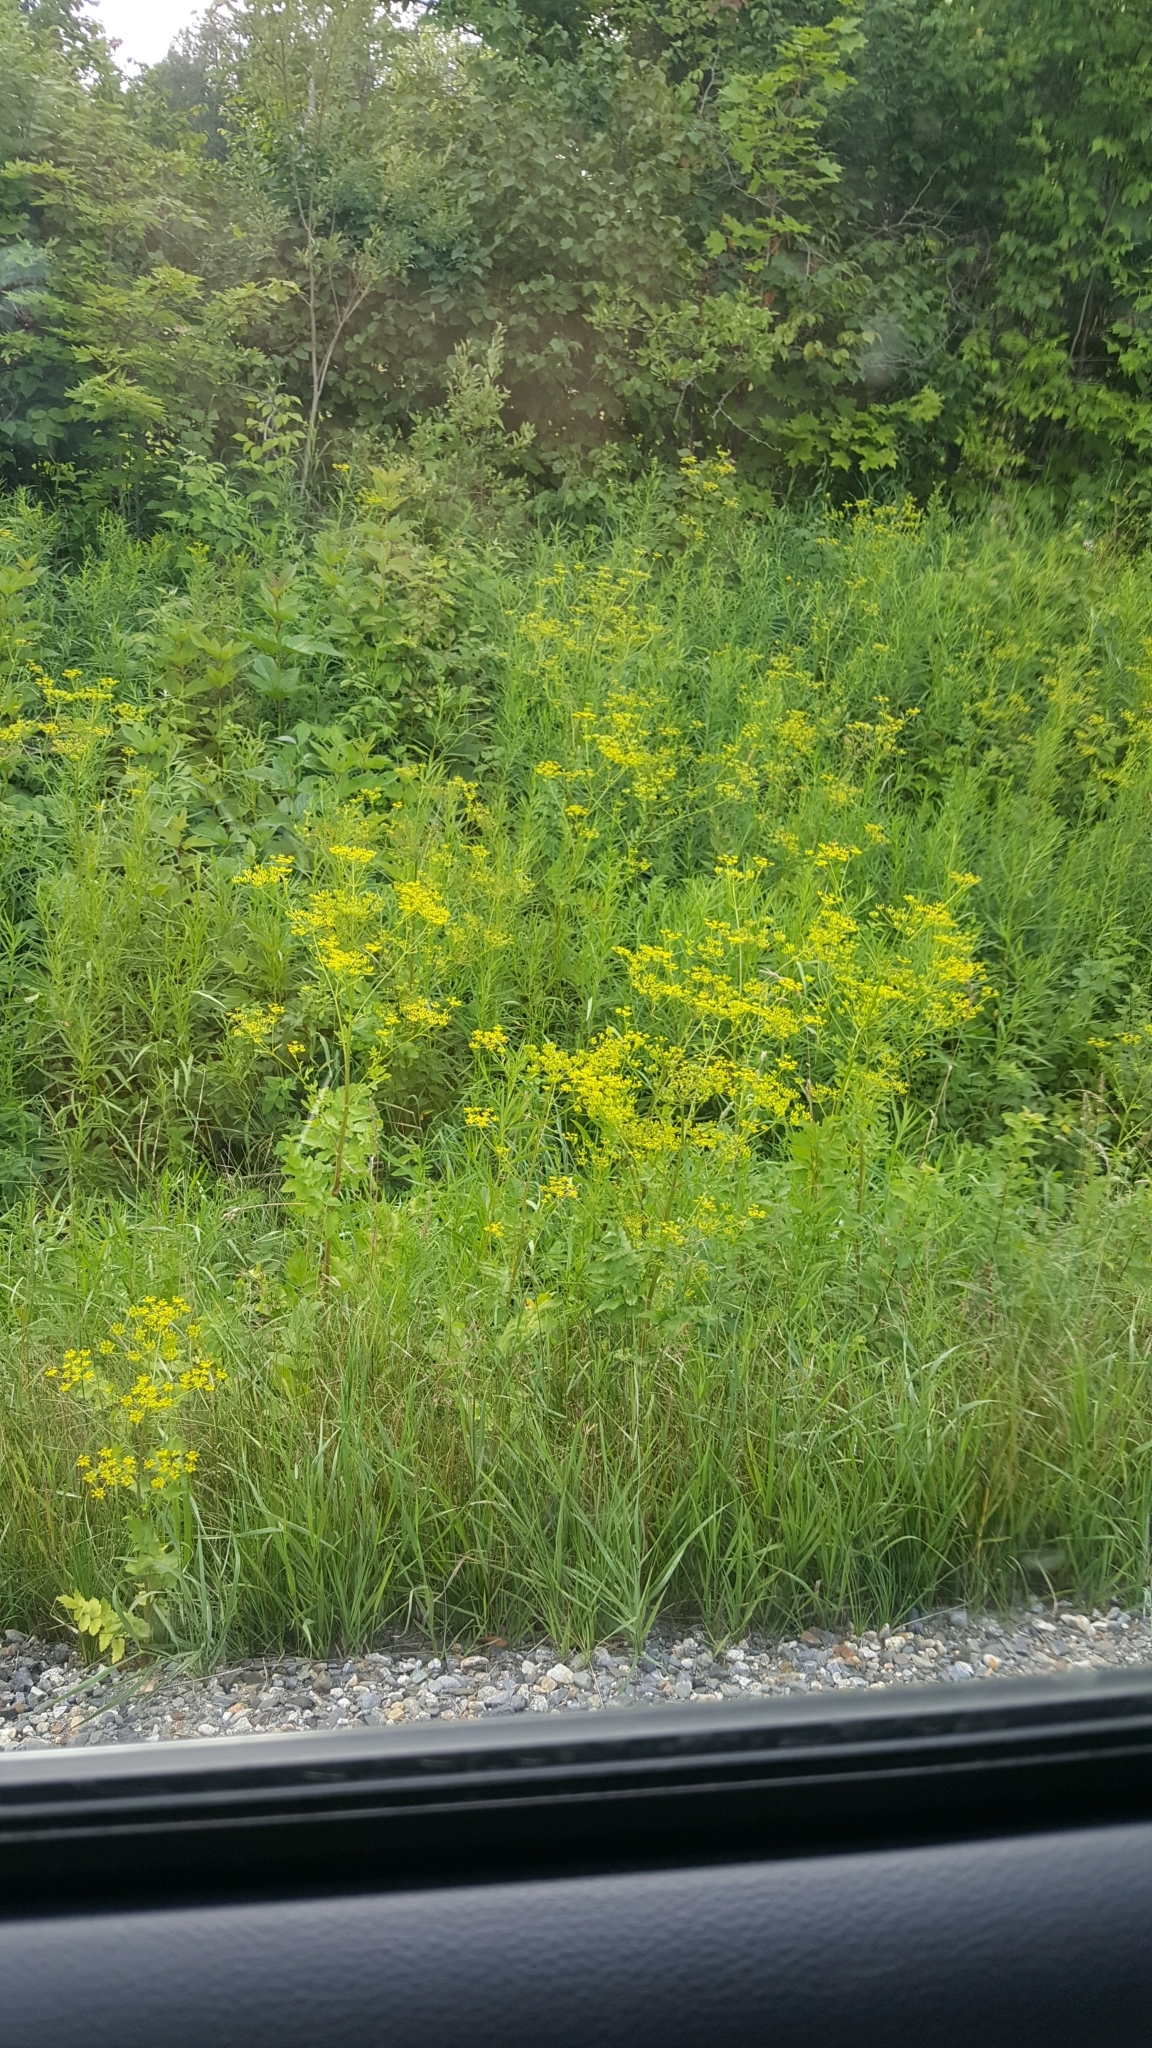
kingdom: Plantae
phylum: Tracheophyta
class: Magnoliopsida
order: Apiales
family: Apiaceae
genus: Pastinaca
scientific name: Pastinaca sativa
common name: Wild parsnip
